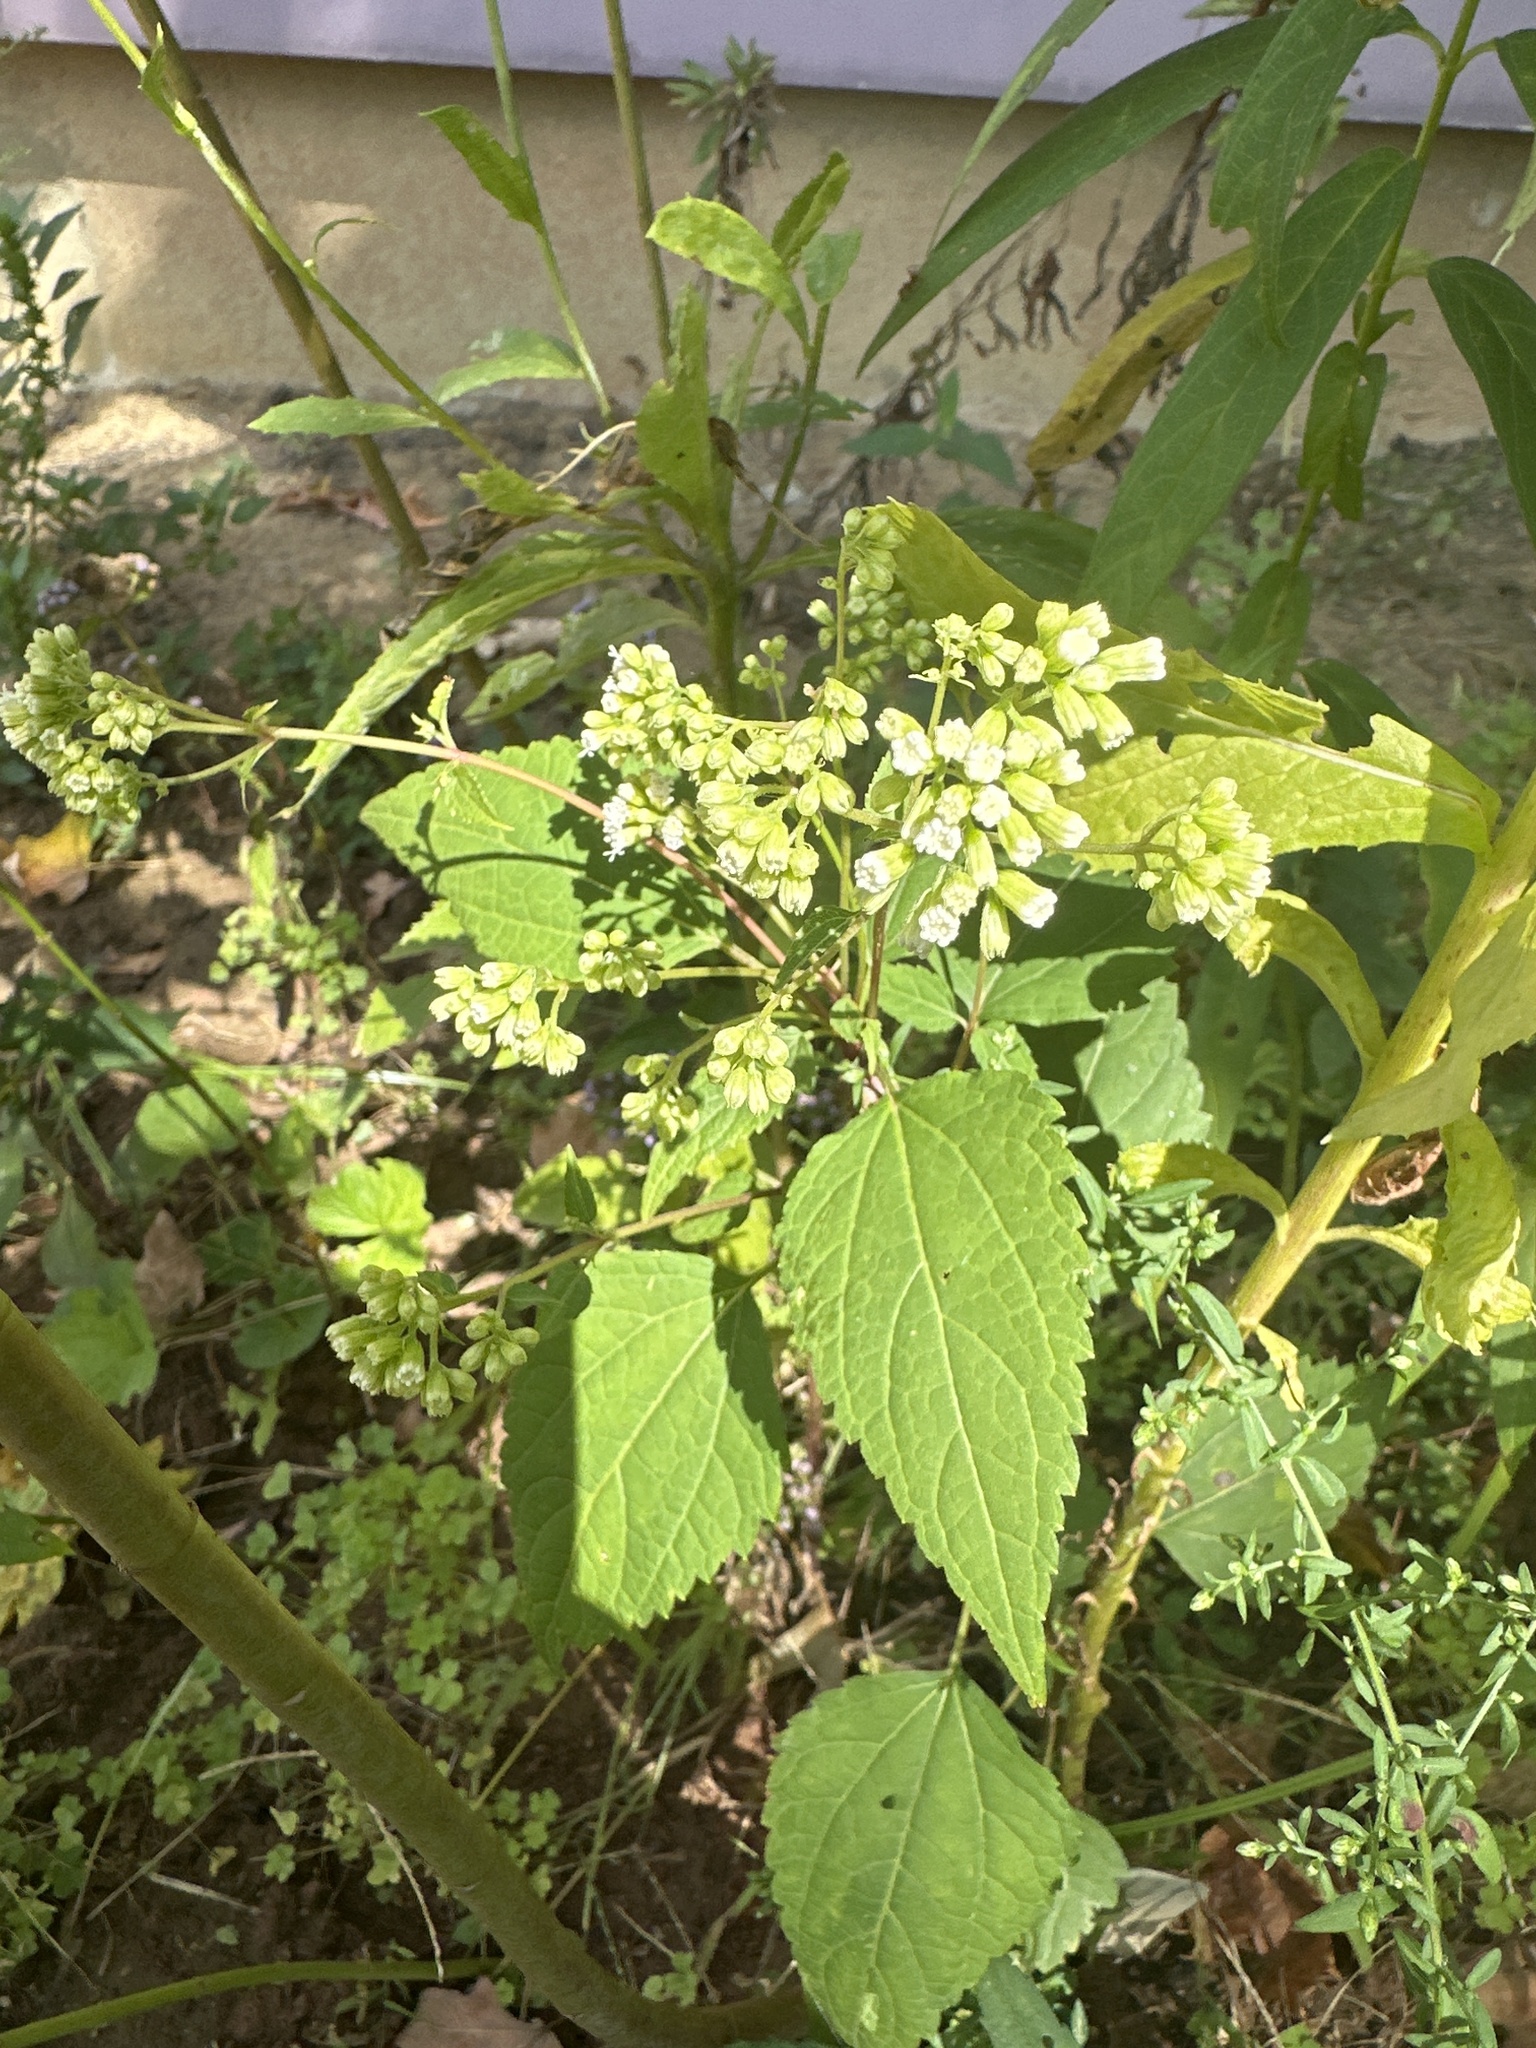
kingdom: Plantae
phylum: Tracheophyta
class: Magnoliopsida
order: Asterales
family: Asteraceae
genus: Ageratina
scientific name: Ageratina altissima
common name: White snakeroot
